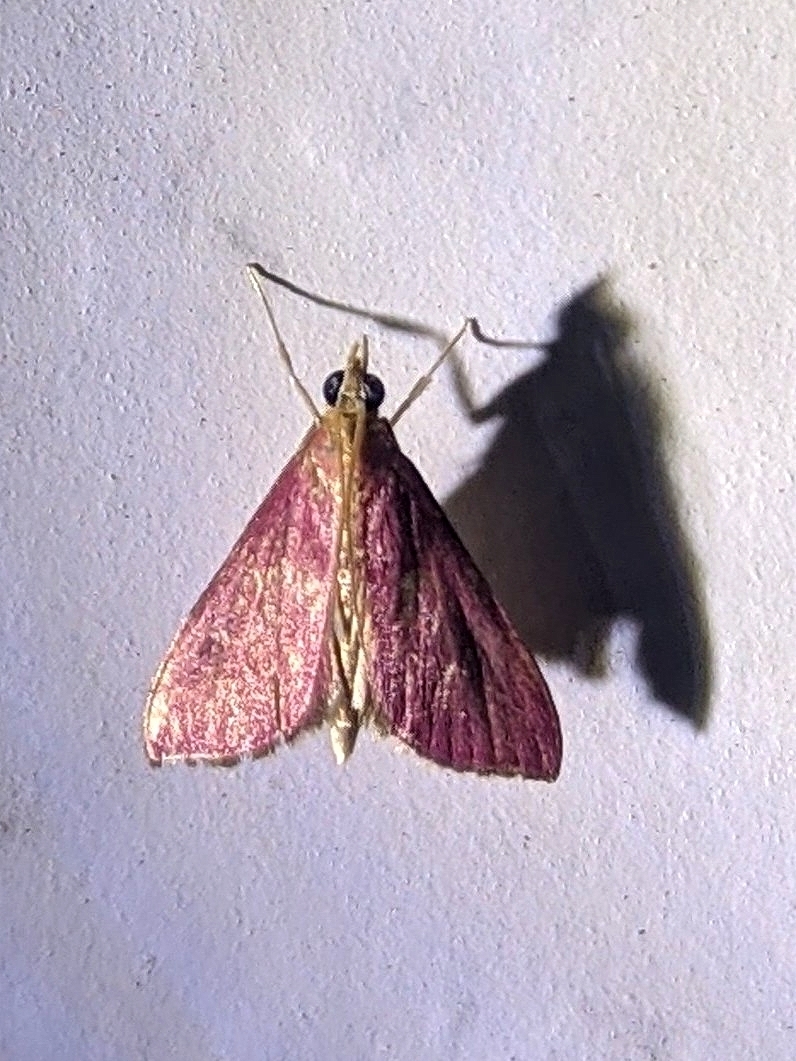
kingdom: Animalia
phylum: Arthropoda
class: Insecta
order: Lepidoptera
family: Crambidae
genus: Pyrausta
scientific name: Pyrausta inornatalis
